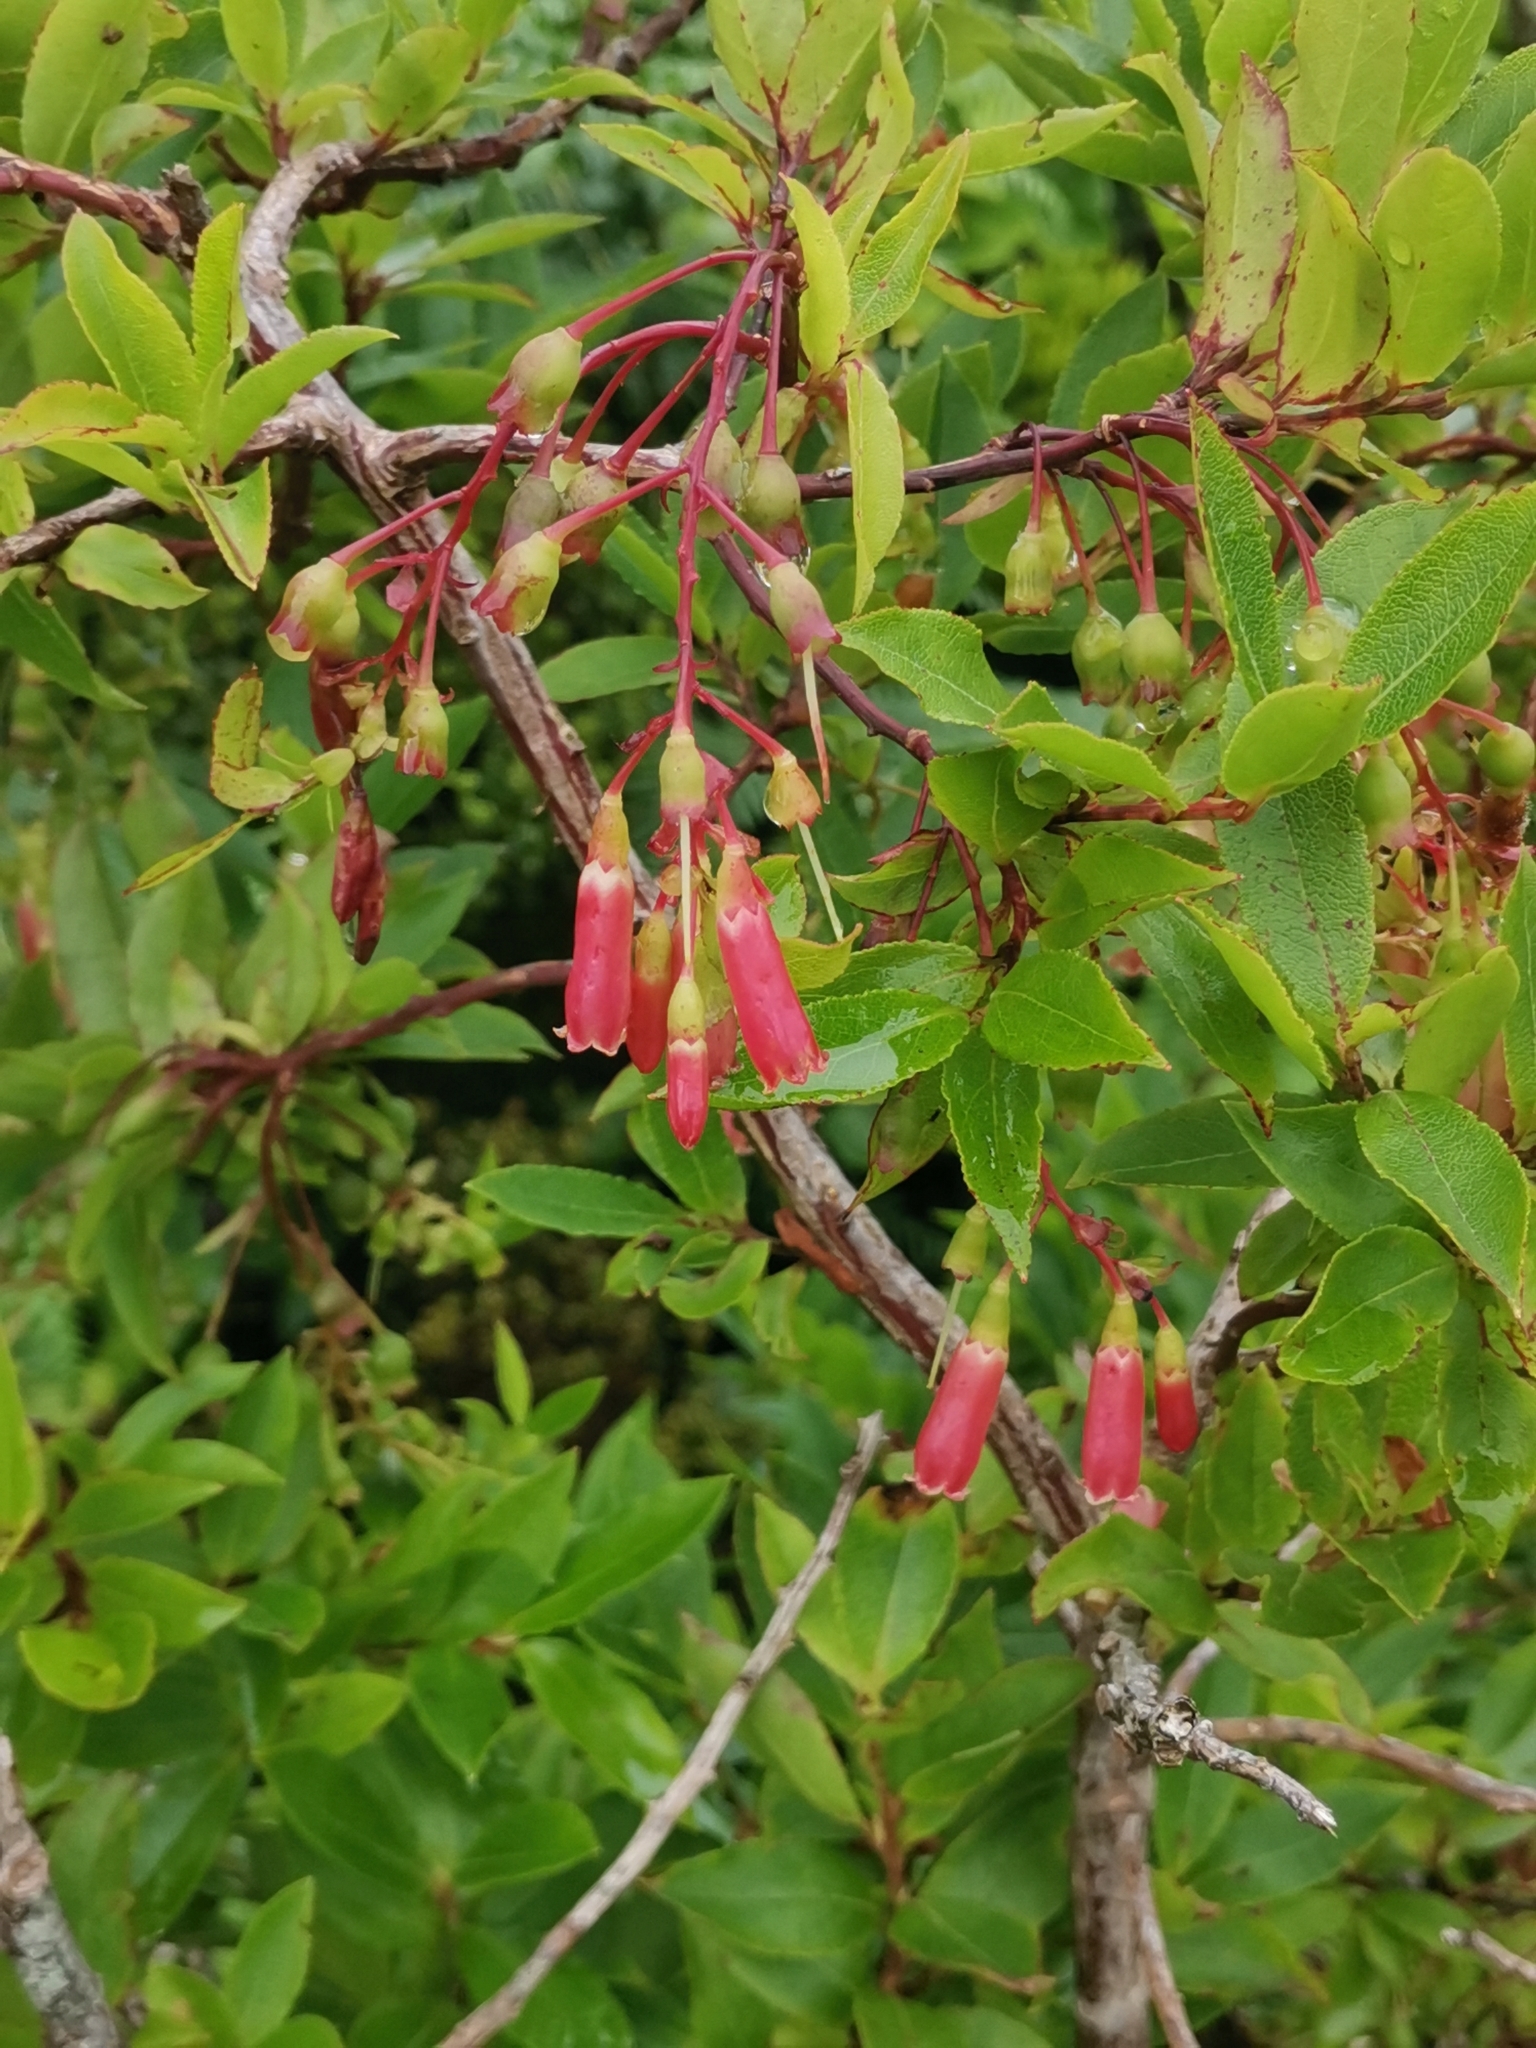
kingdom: Plantae
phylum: Tracheophyta
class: Magnoliopsida
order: Ericales
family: Ericaceae
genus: Vaccinium
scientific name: Vaccinium cylindraceum
